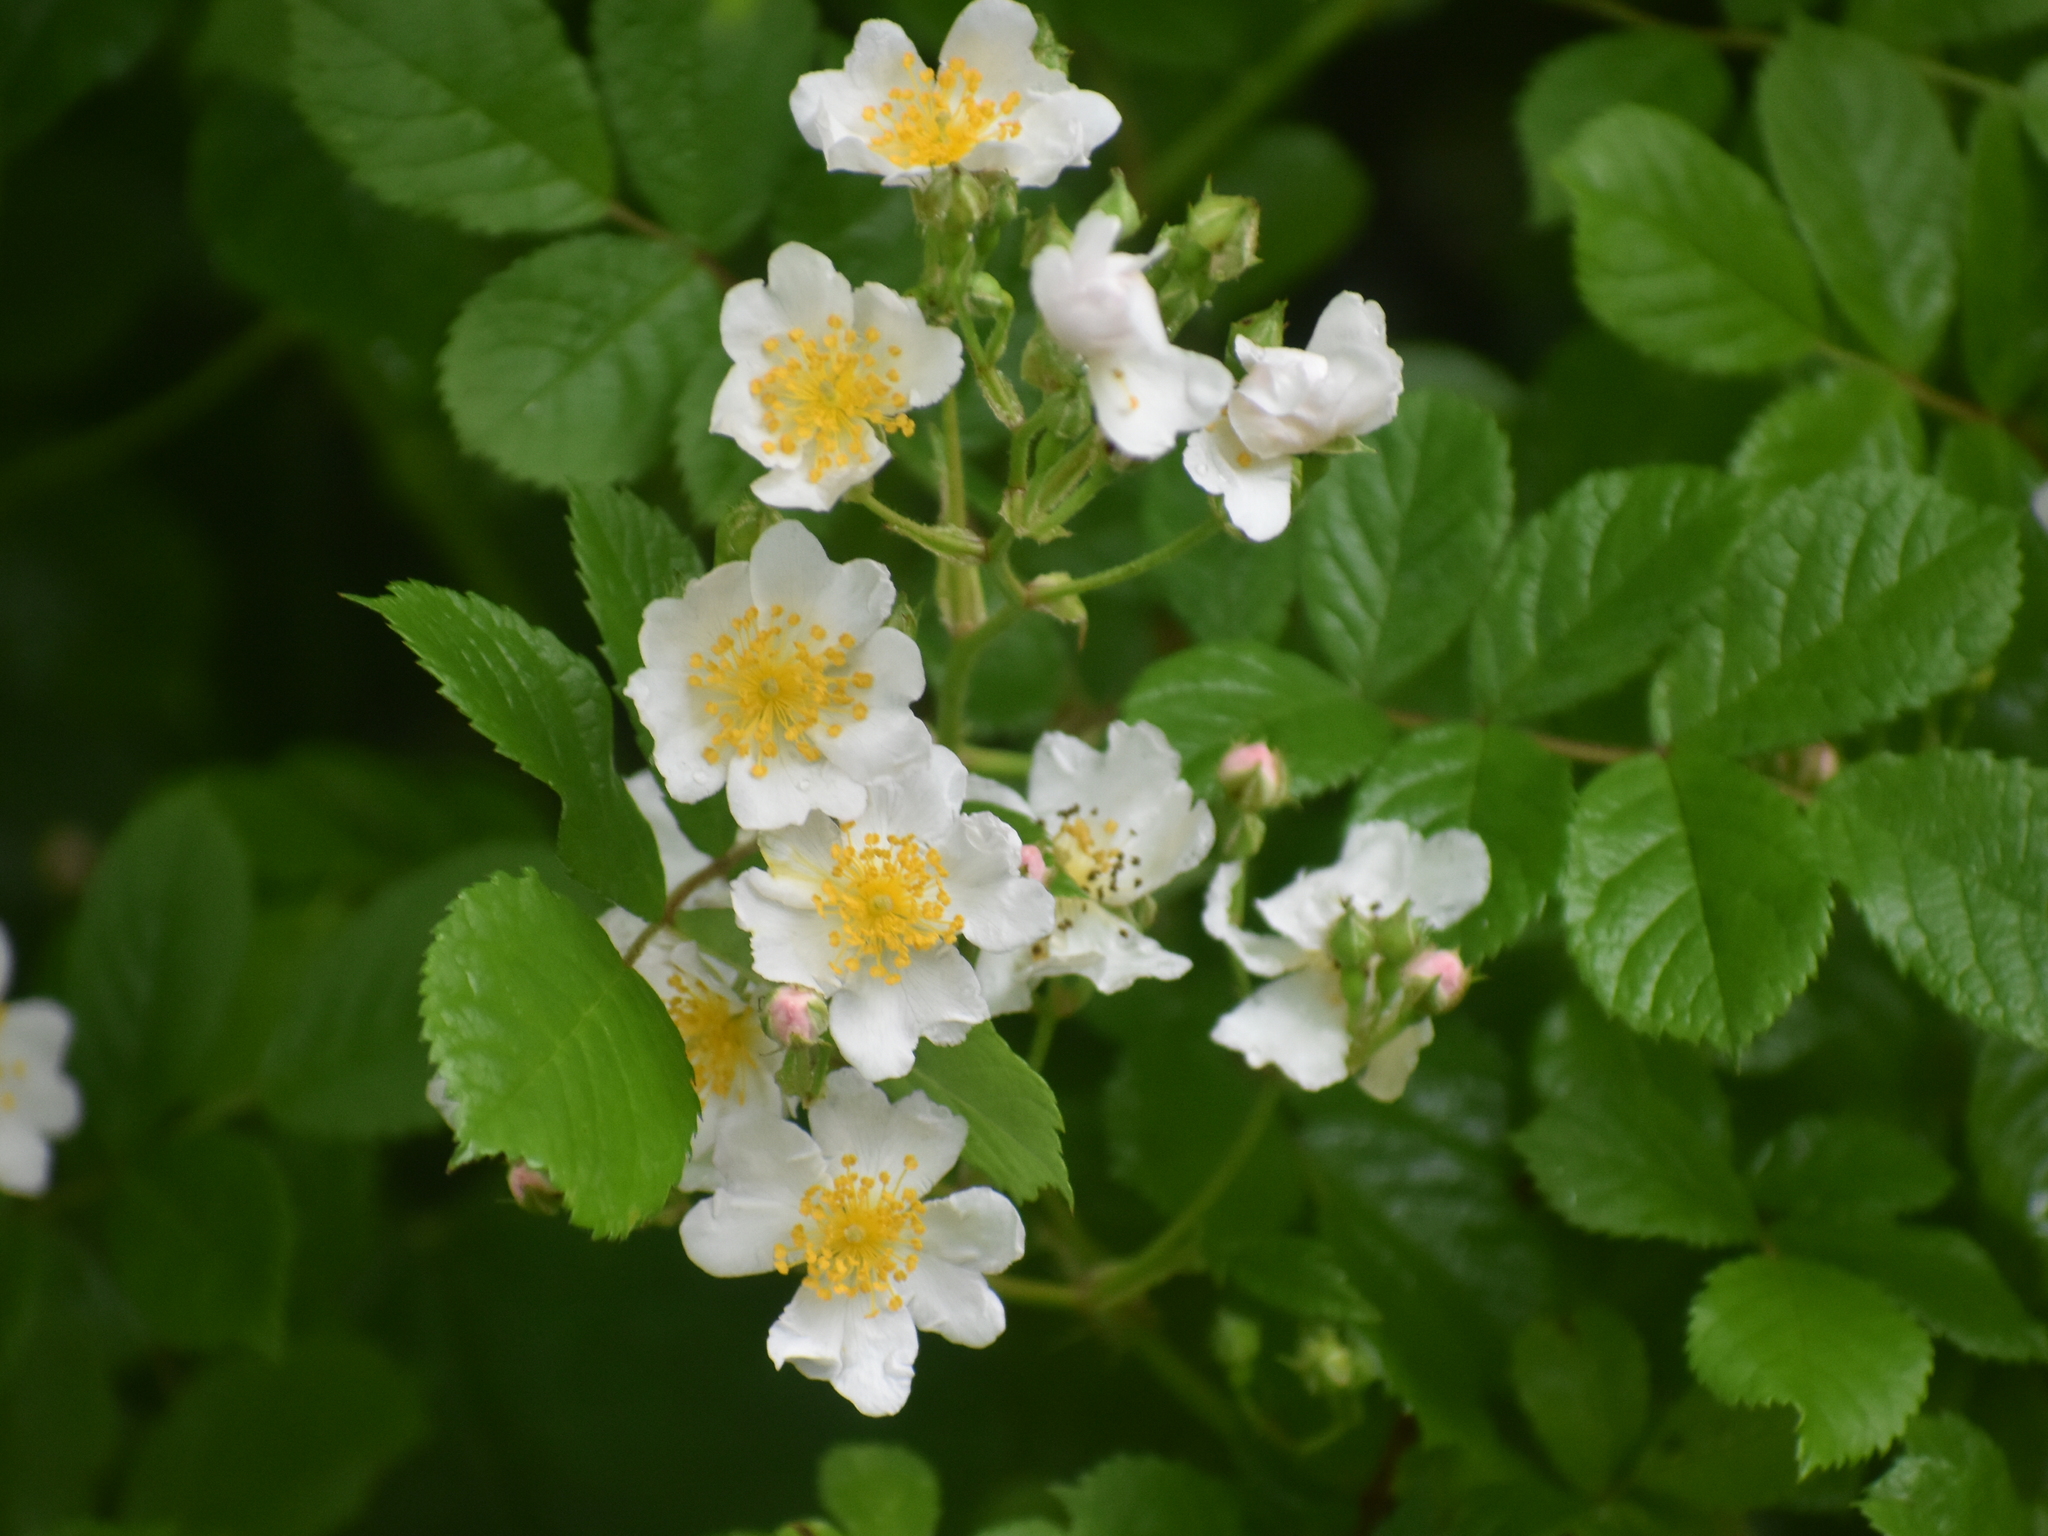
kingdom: Plantae
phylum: Tracheophyta
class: Magnoliopsida
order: Rosales
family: Rosaceae
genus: Rosa
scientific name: Rosa multiflora
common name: Multiflora rose
